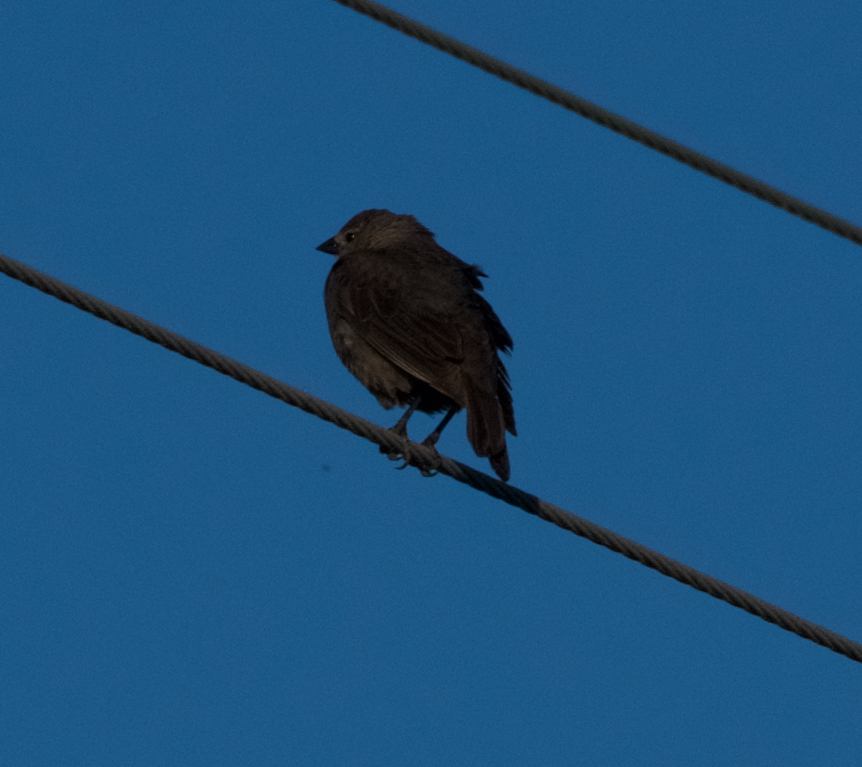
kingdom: Animalia
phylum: Chordata
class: Aves
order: Passeriformes
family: Icteridae
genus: Molothrus
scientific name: Molothrus ater
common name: Brown-headed cowbird
